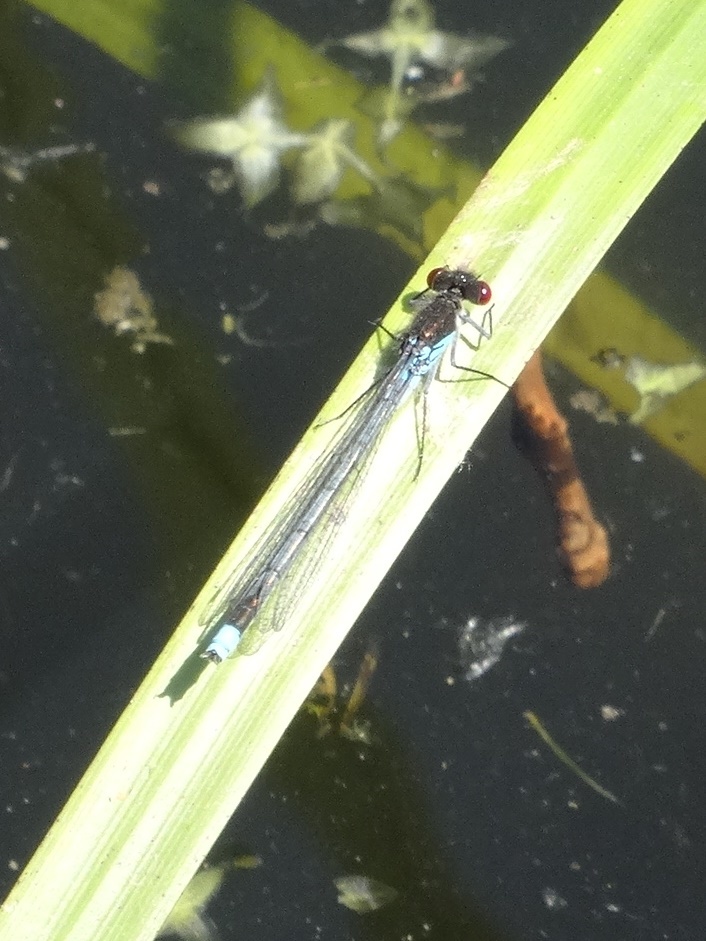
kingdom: Animalia
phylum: Arthropoda
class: Insecta
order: Odonata
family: Coenagrionidae
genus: Erythromma
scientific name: Erythromma najas
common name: Red-eyed damselfly
